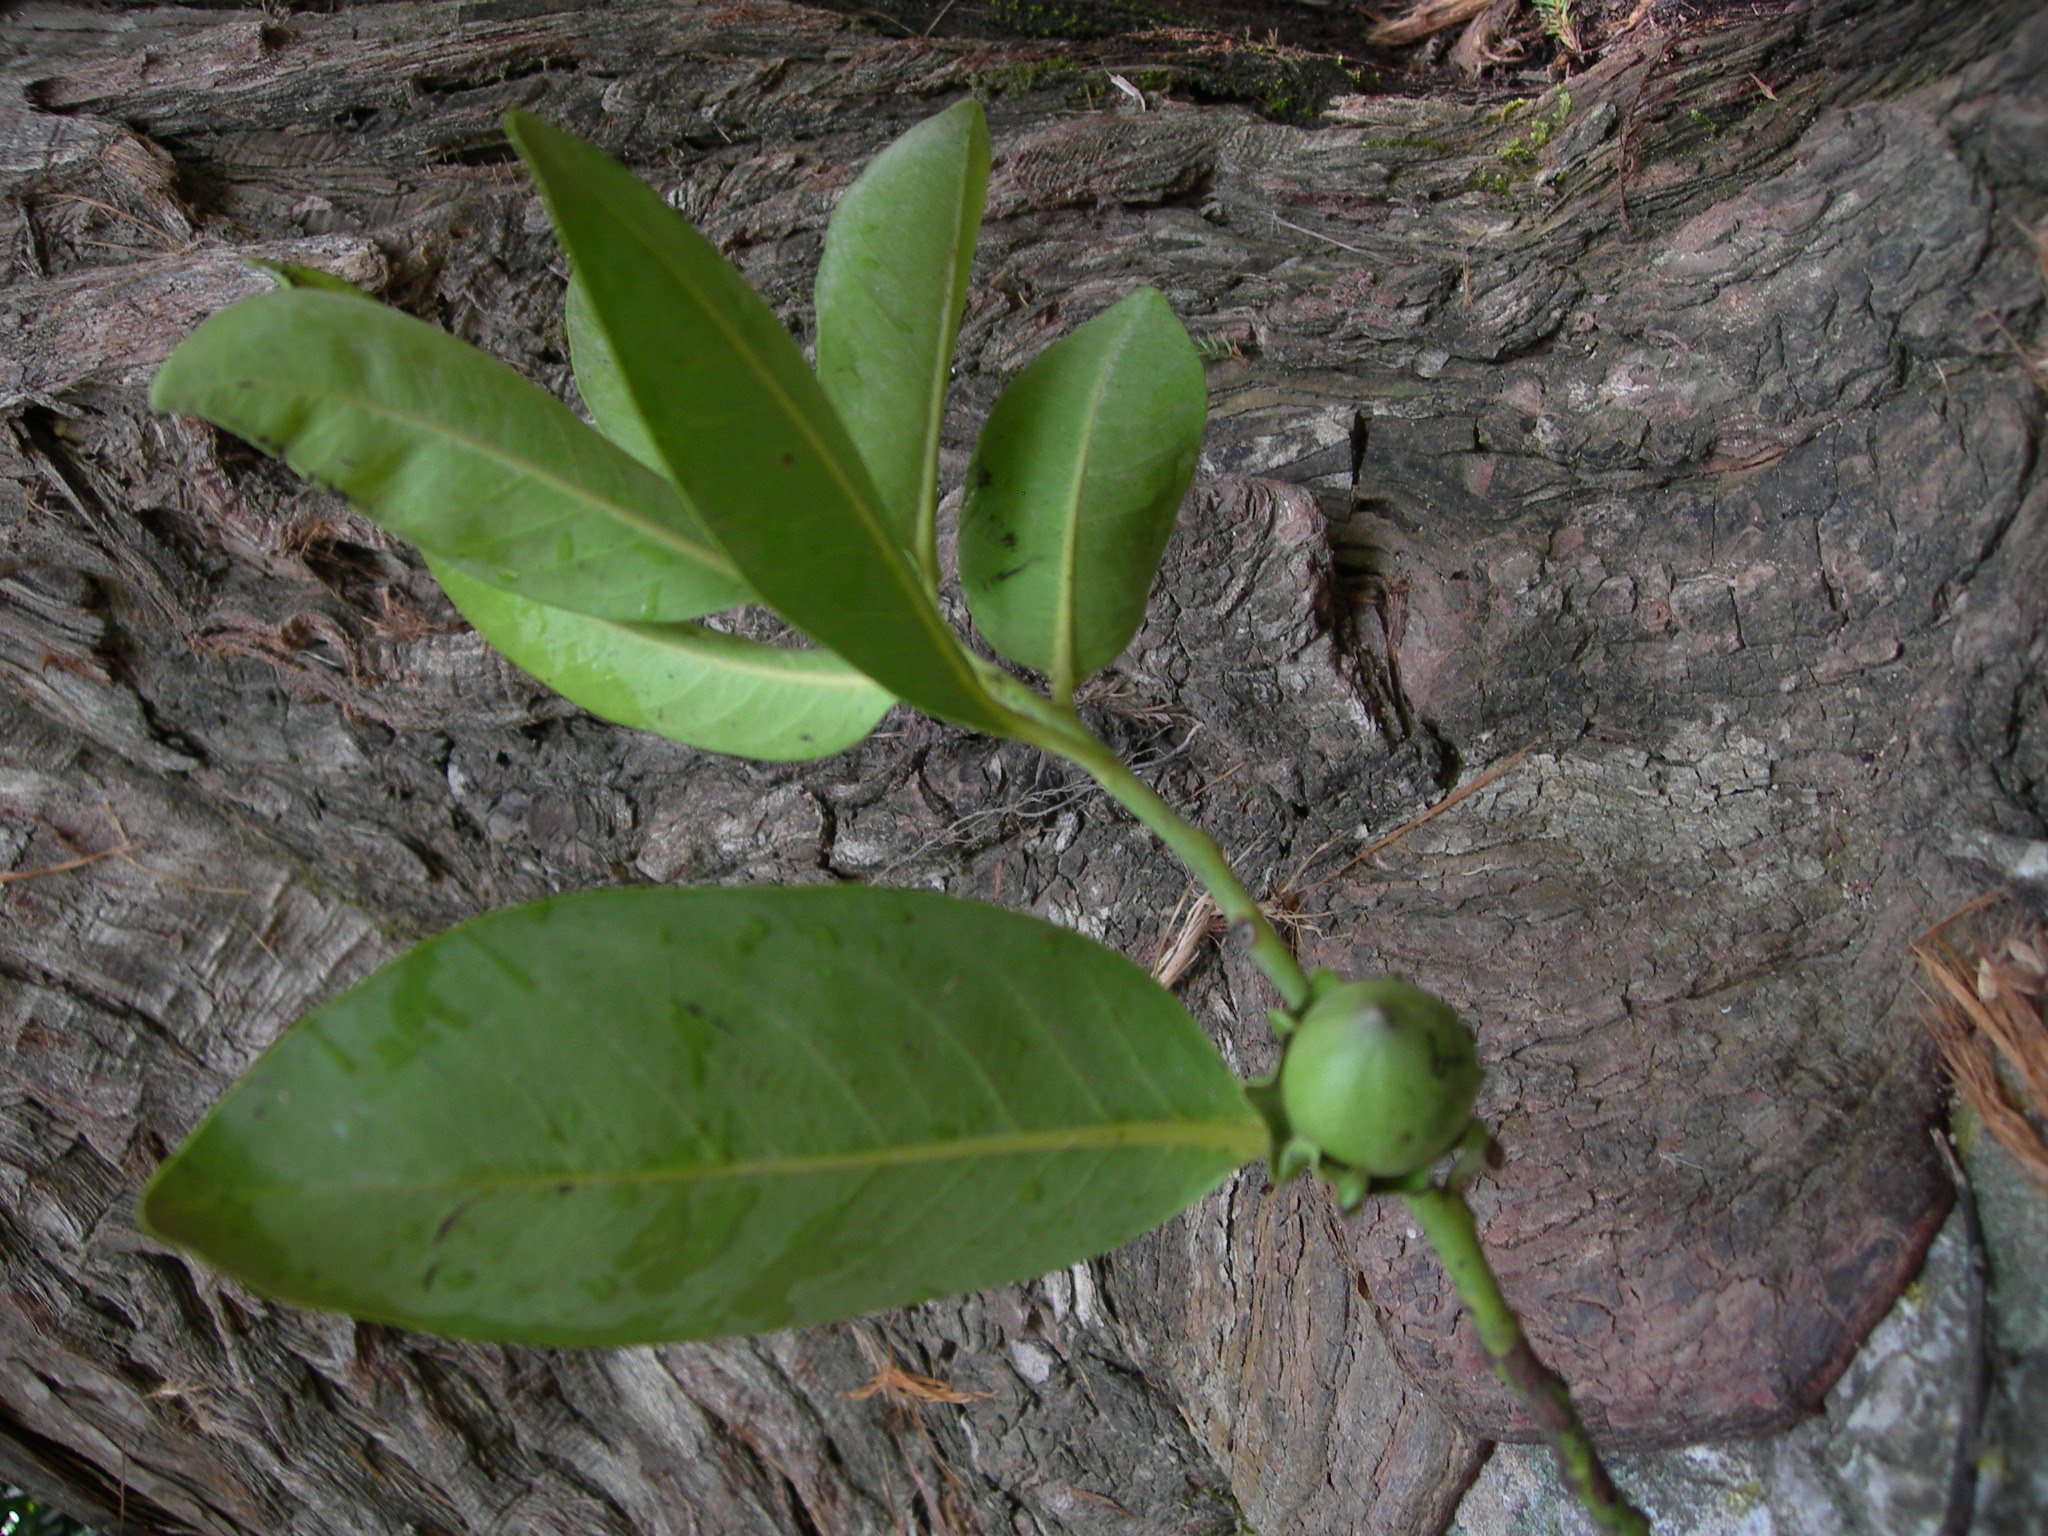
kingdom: Plantae
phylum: Tracheophyta
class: Magnoliopsida
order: Ericales
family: Ebenaceae
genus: Diospyros
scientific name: Diospyros nigra
